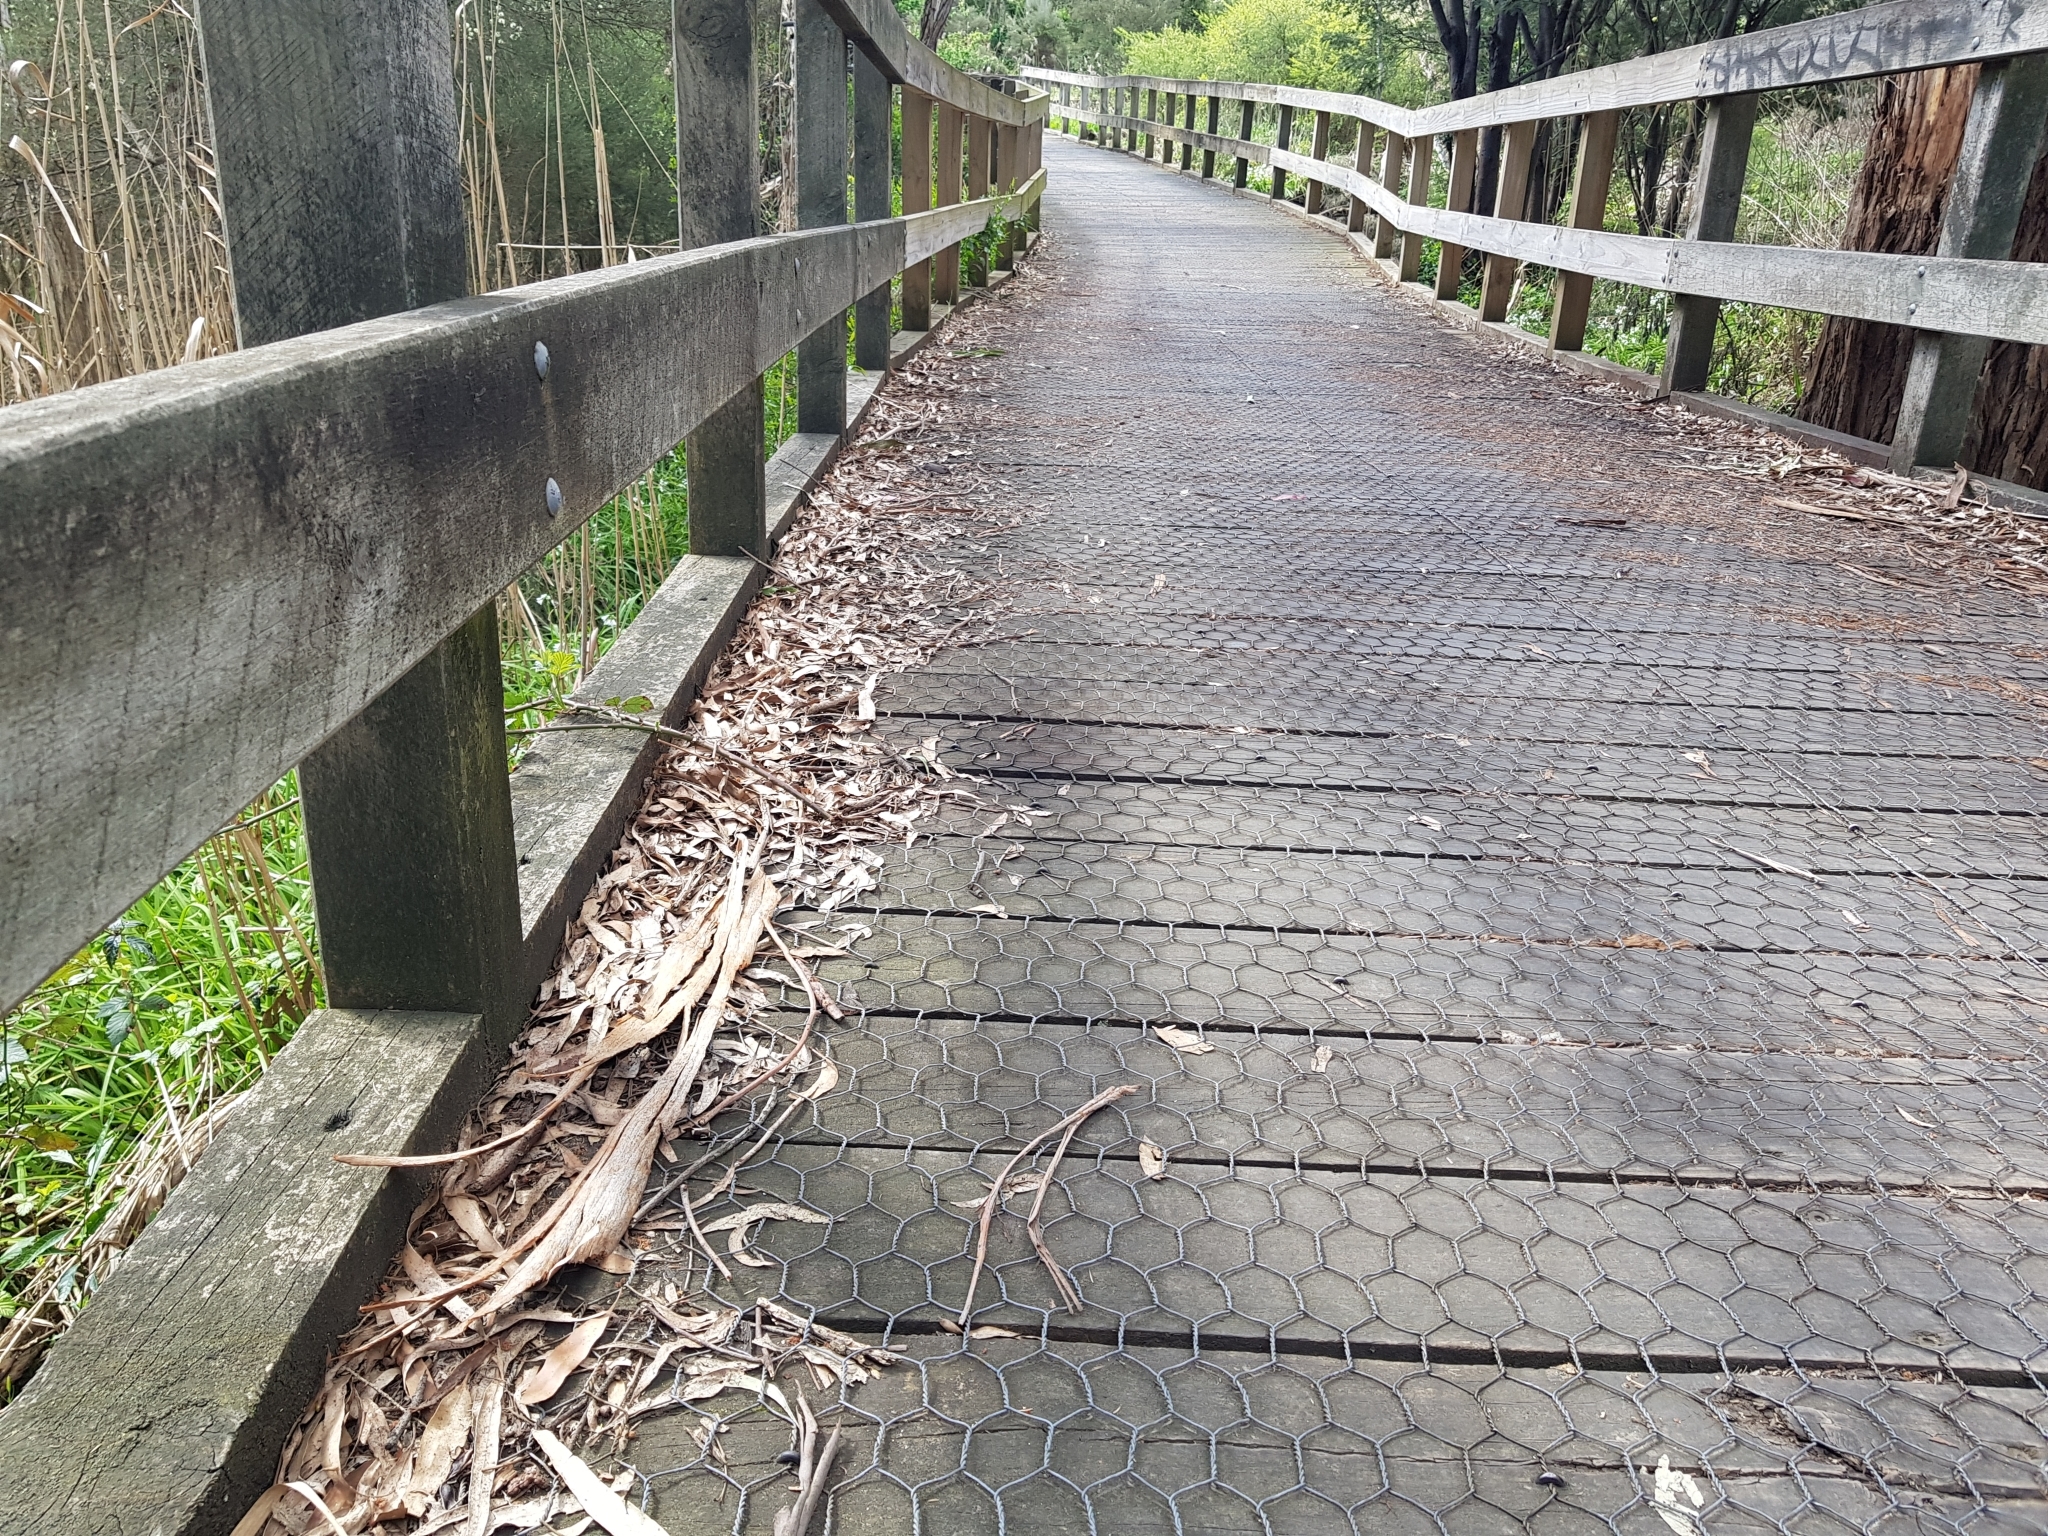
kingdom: Animalia
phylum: Arthropoda
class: Insecta
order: Blattodea
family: Blaberidae
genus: Laxta
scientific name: Laxta granicollis
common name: Bark cockroach
